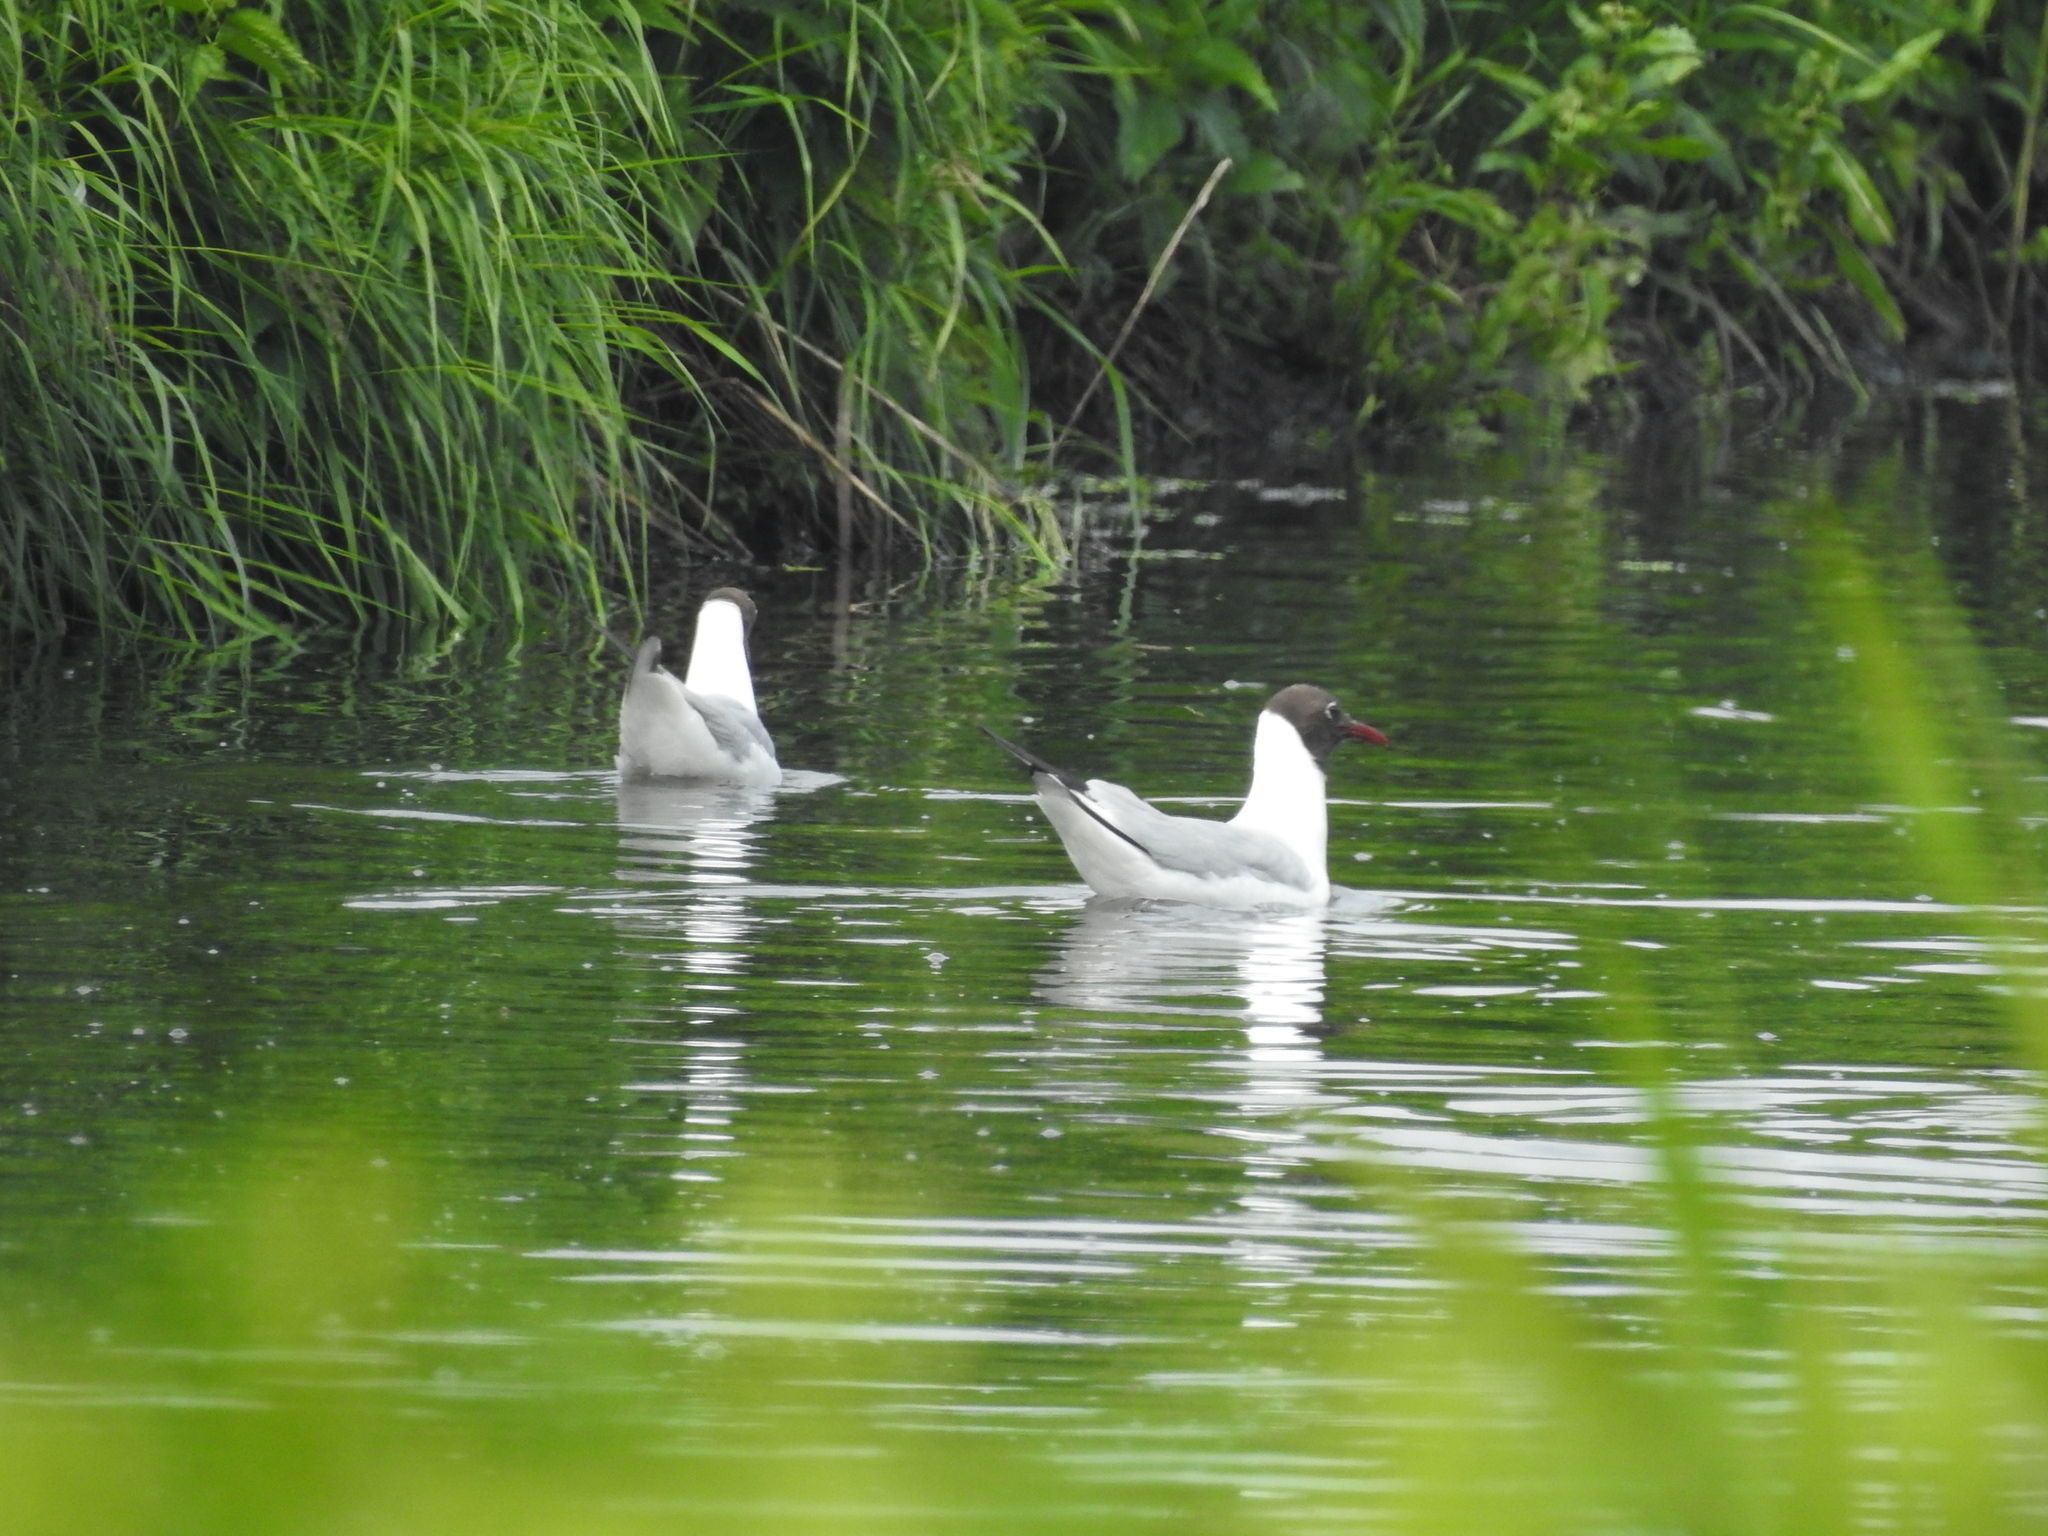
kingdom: Animalia
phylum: Chordata
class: Aves
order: Charadriiformes
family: Laridae
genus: Chroicocephalus
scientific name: Chroicocephalus ridibundus
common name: Black-headed gull
